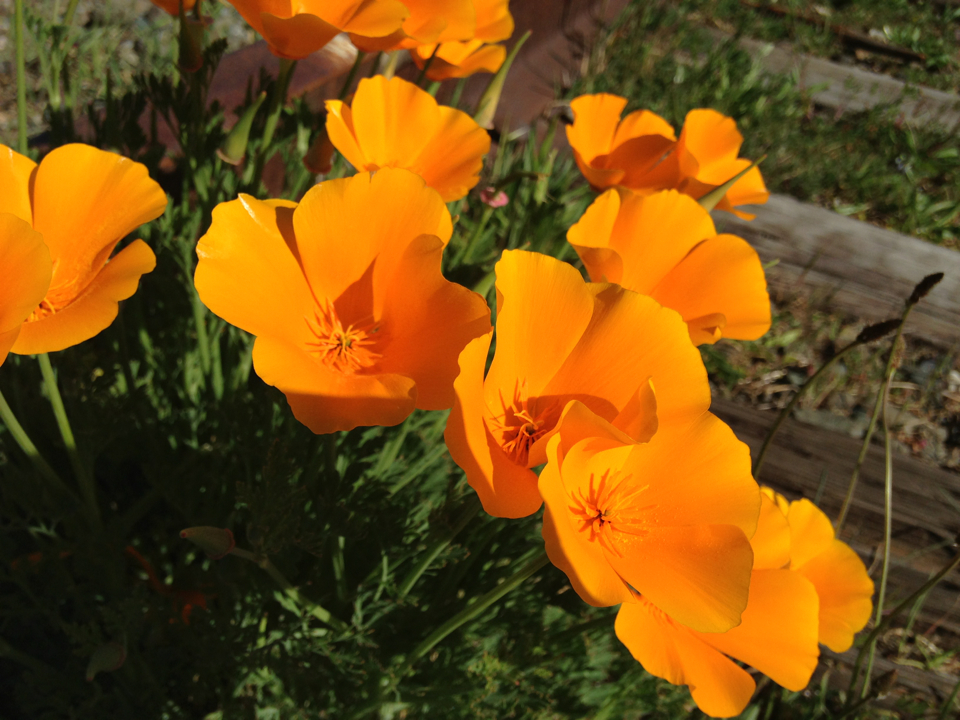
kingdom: Plantae
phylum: Tracheophyta
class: Magnoliopsida
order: Ranunculales
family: Papaveraceae
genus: Eschscholzia
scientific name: Eschscholzia californica
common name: California poppy
